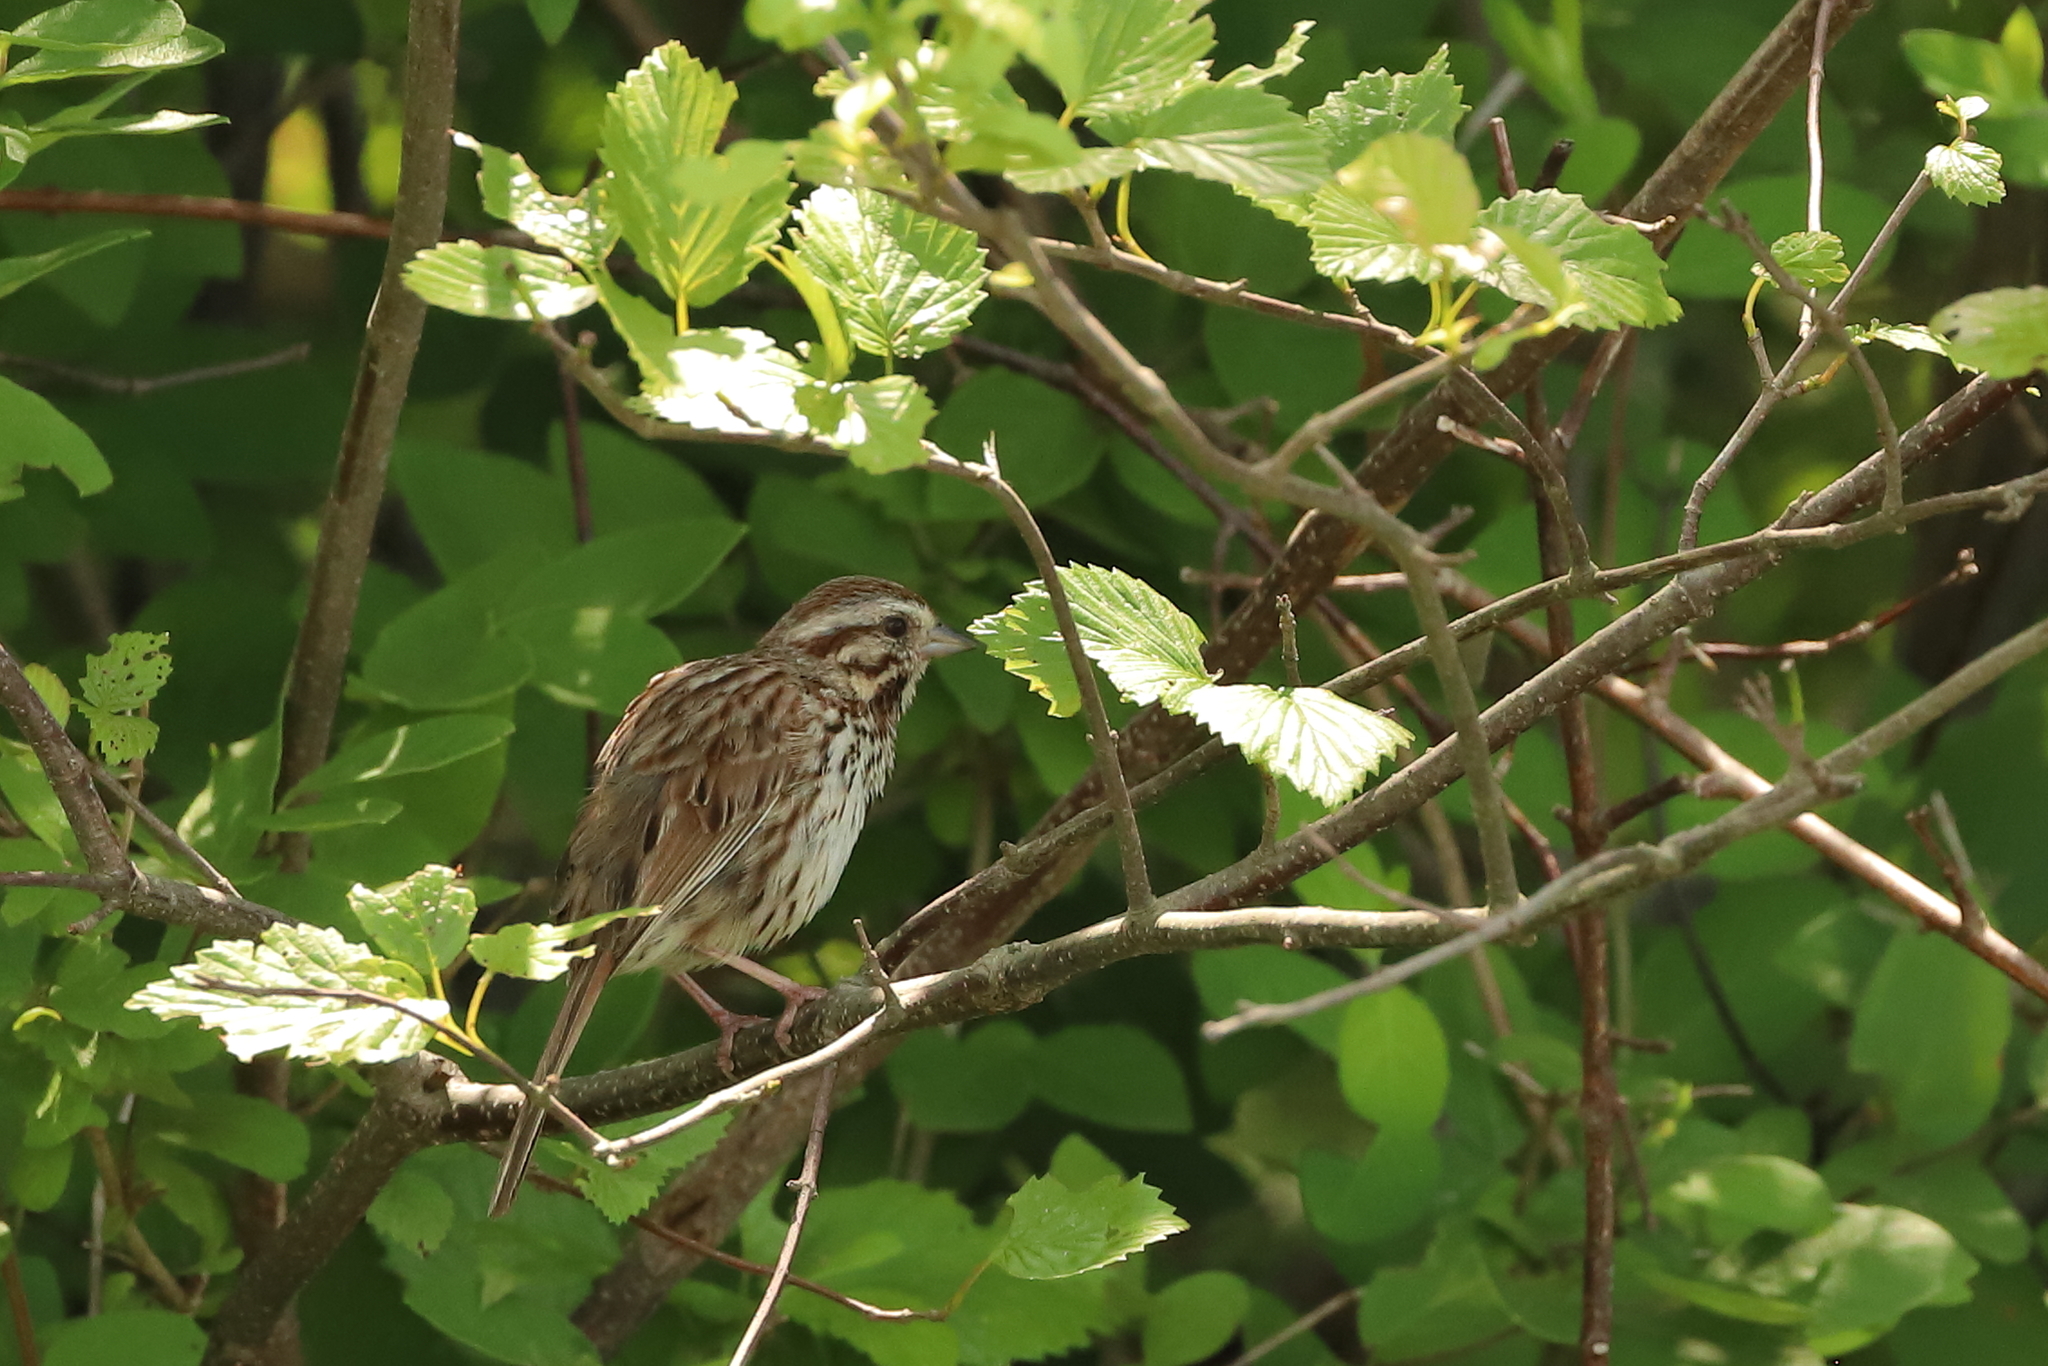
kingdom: Animalia
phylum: Chordata
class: Aves
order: Passeriformes
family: Passerellidae
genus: Melospiza
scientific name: Melospiza melodia
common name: Song sparrow
